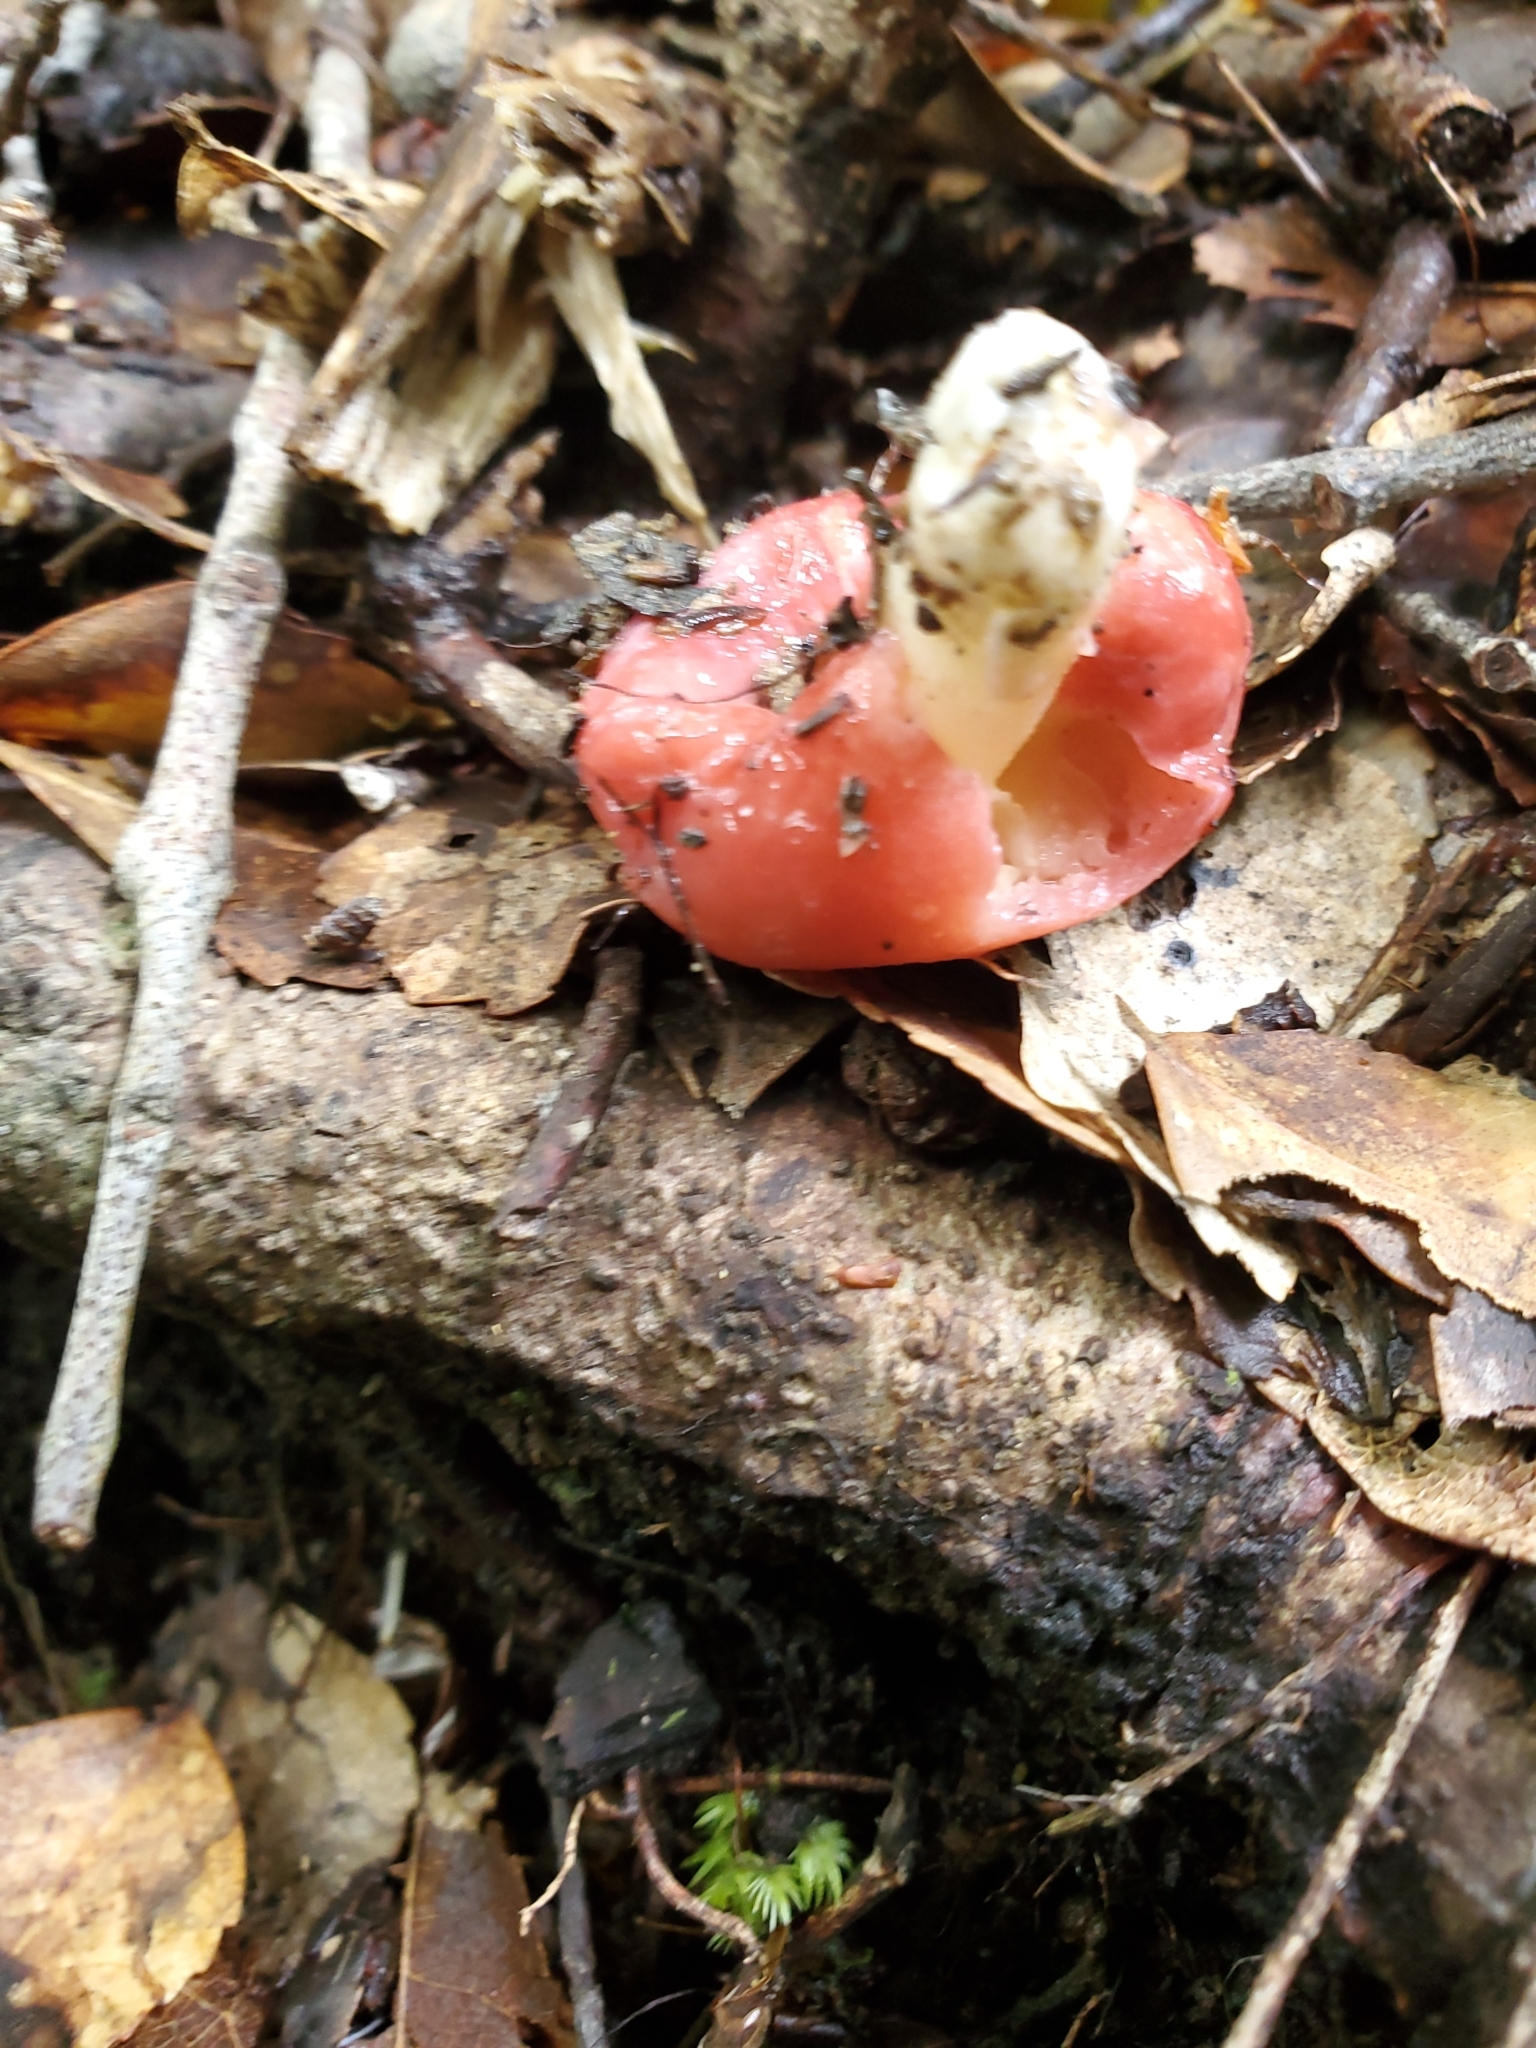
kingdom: Fungi
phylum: Basidiomycota
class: Agaricomycetes
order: Russulales
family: Russulaceae
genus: Russula
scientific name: Russula kermesina
